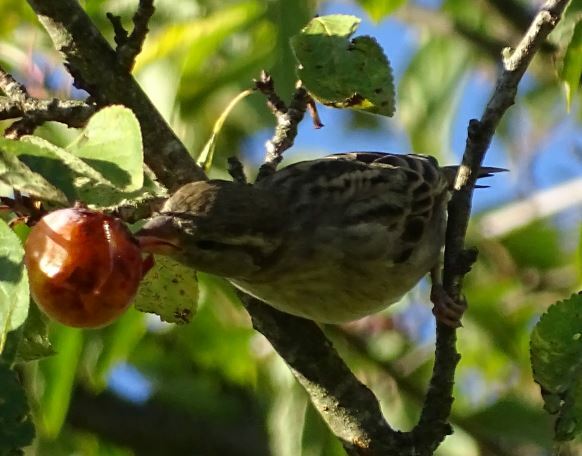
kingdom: Animalia
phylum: Chordata
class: Aves
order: Passeriformes
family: Passeridae
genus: Passer
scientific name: Passer domesticus
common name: House sparrow
